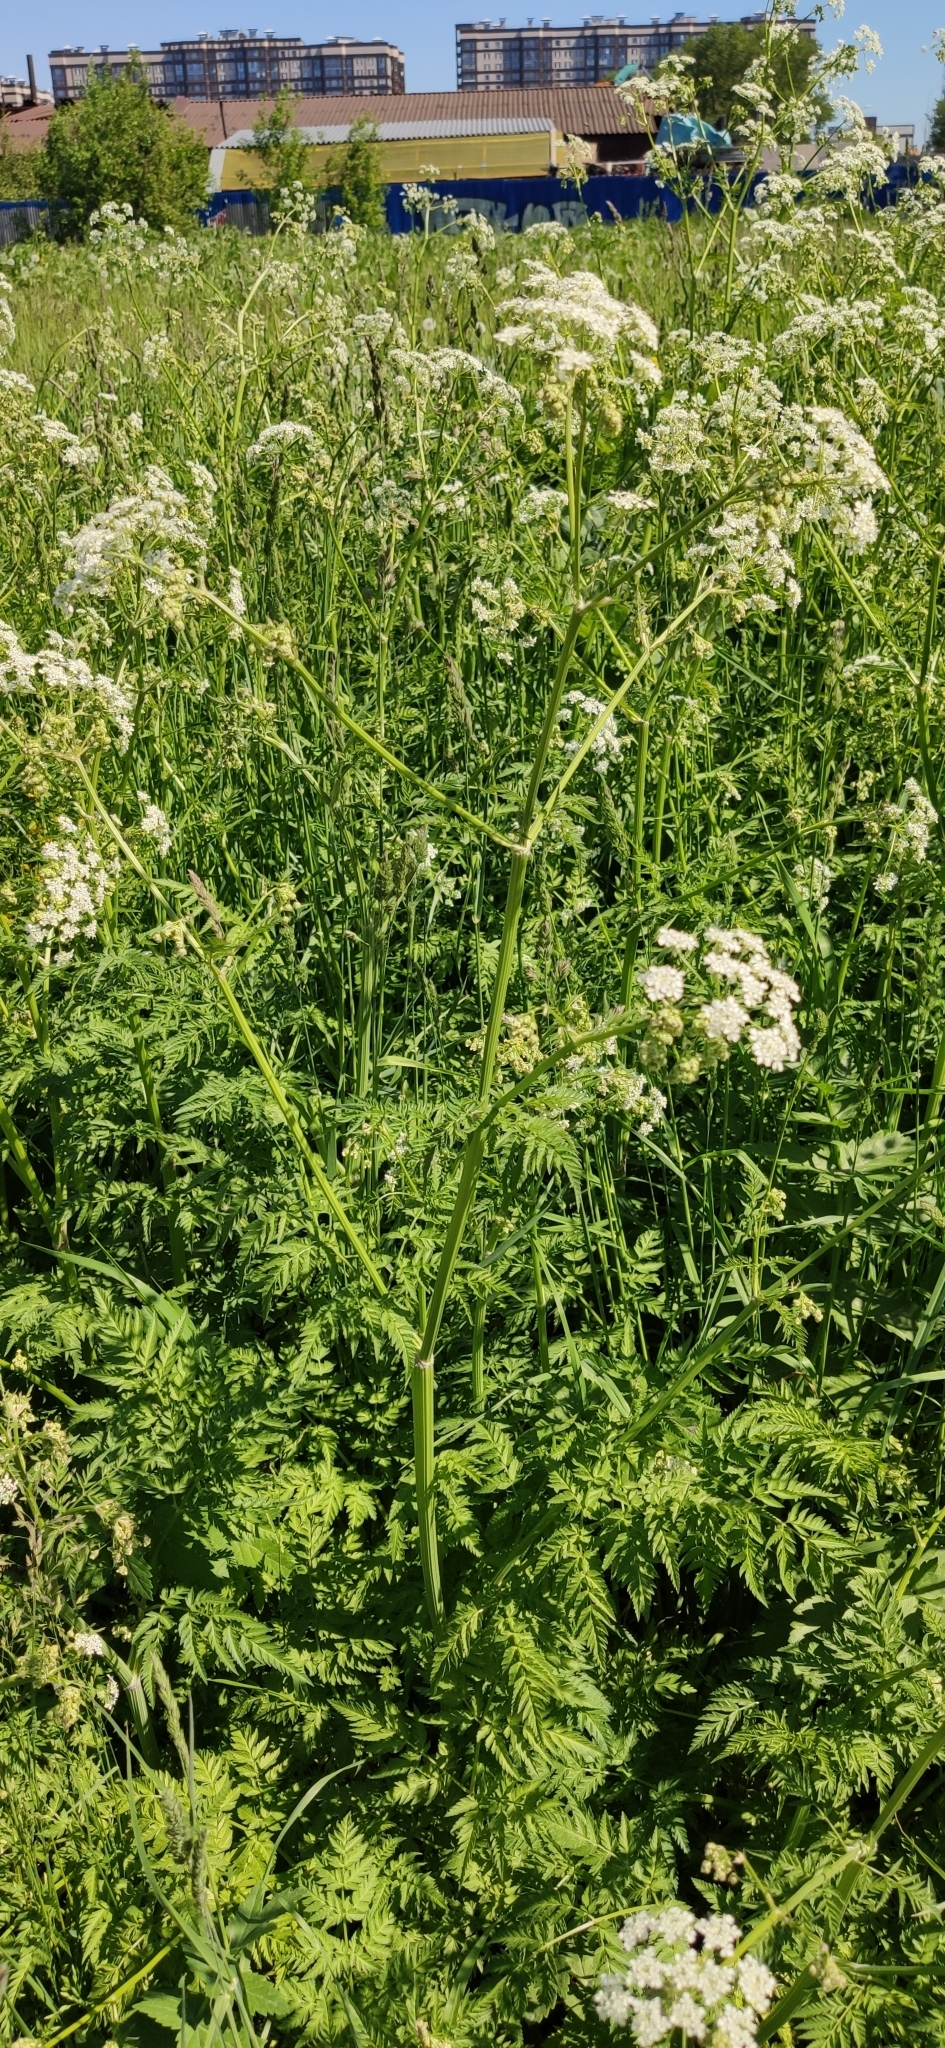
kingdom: Plantae
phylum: Tracheophyta
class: Magnoliopsida
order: Apiales
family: Apiaceae
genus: Anthriscus
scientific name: Anthriscus sylvestris
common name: Cow parsley
